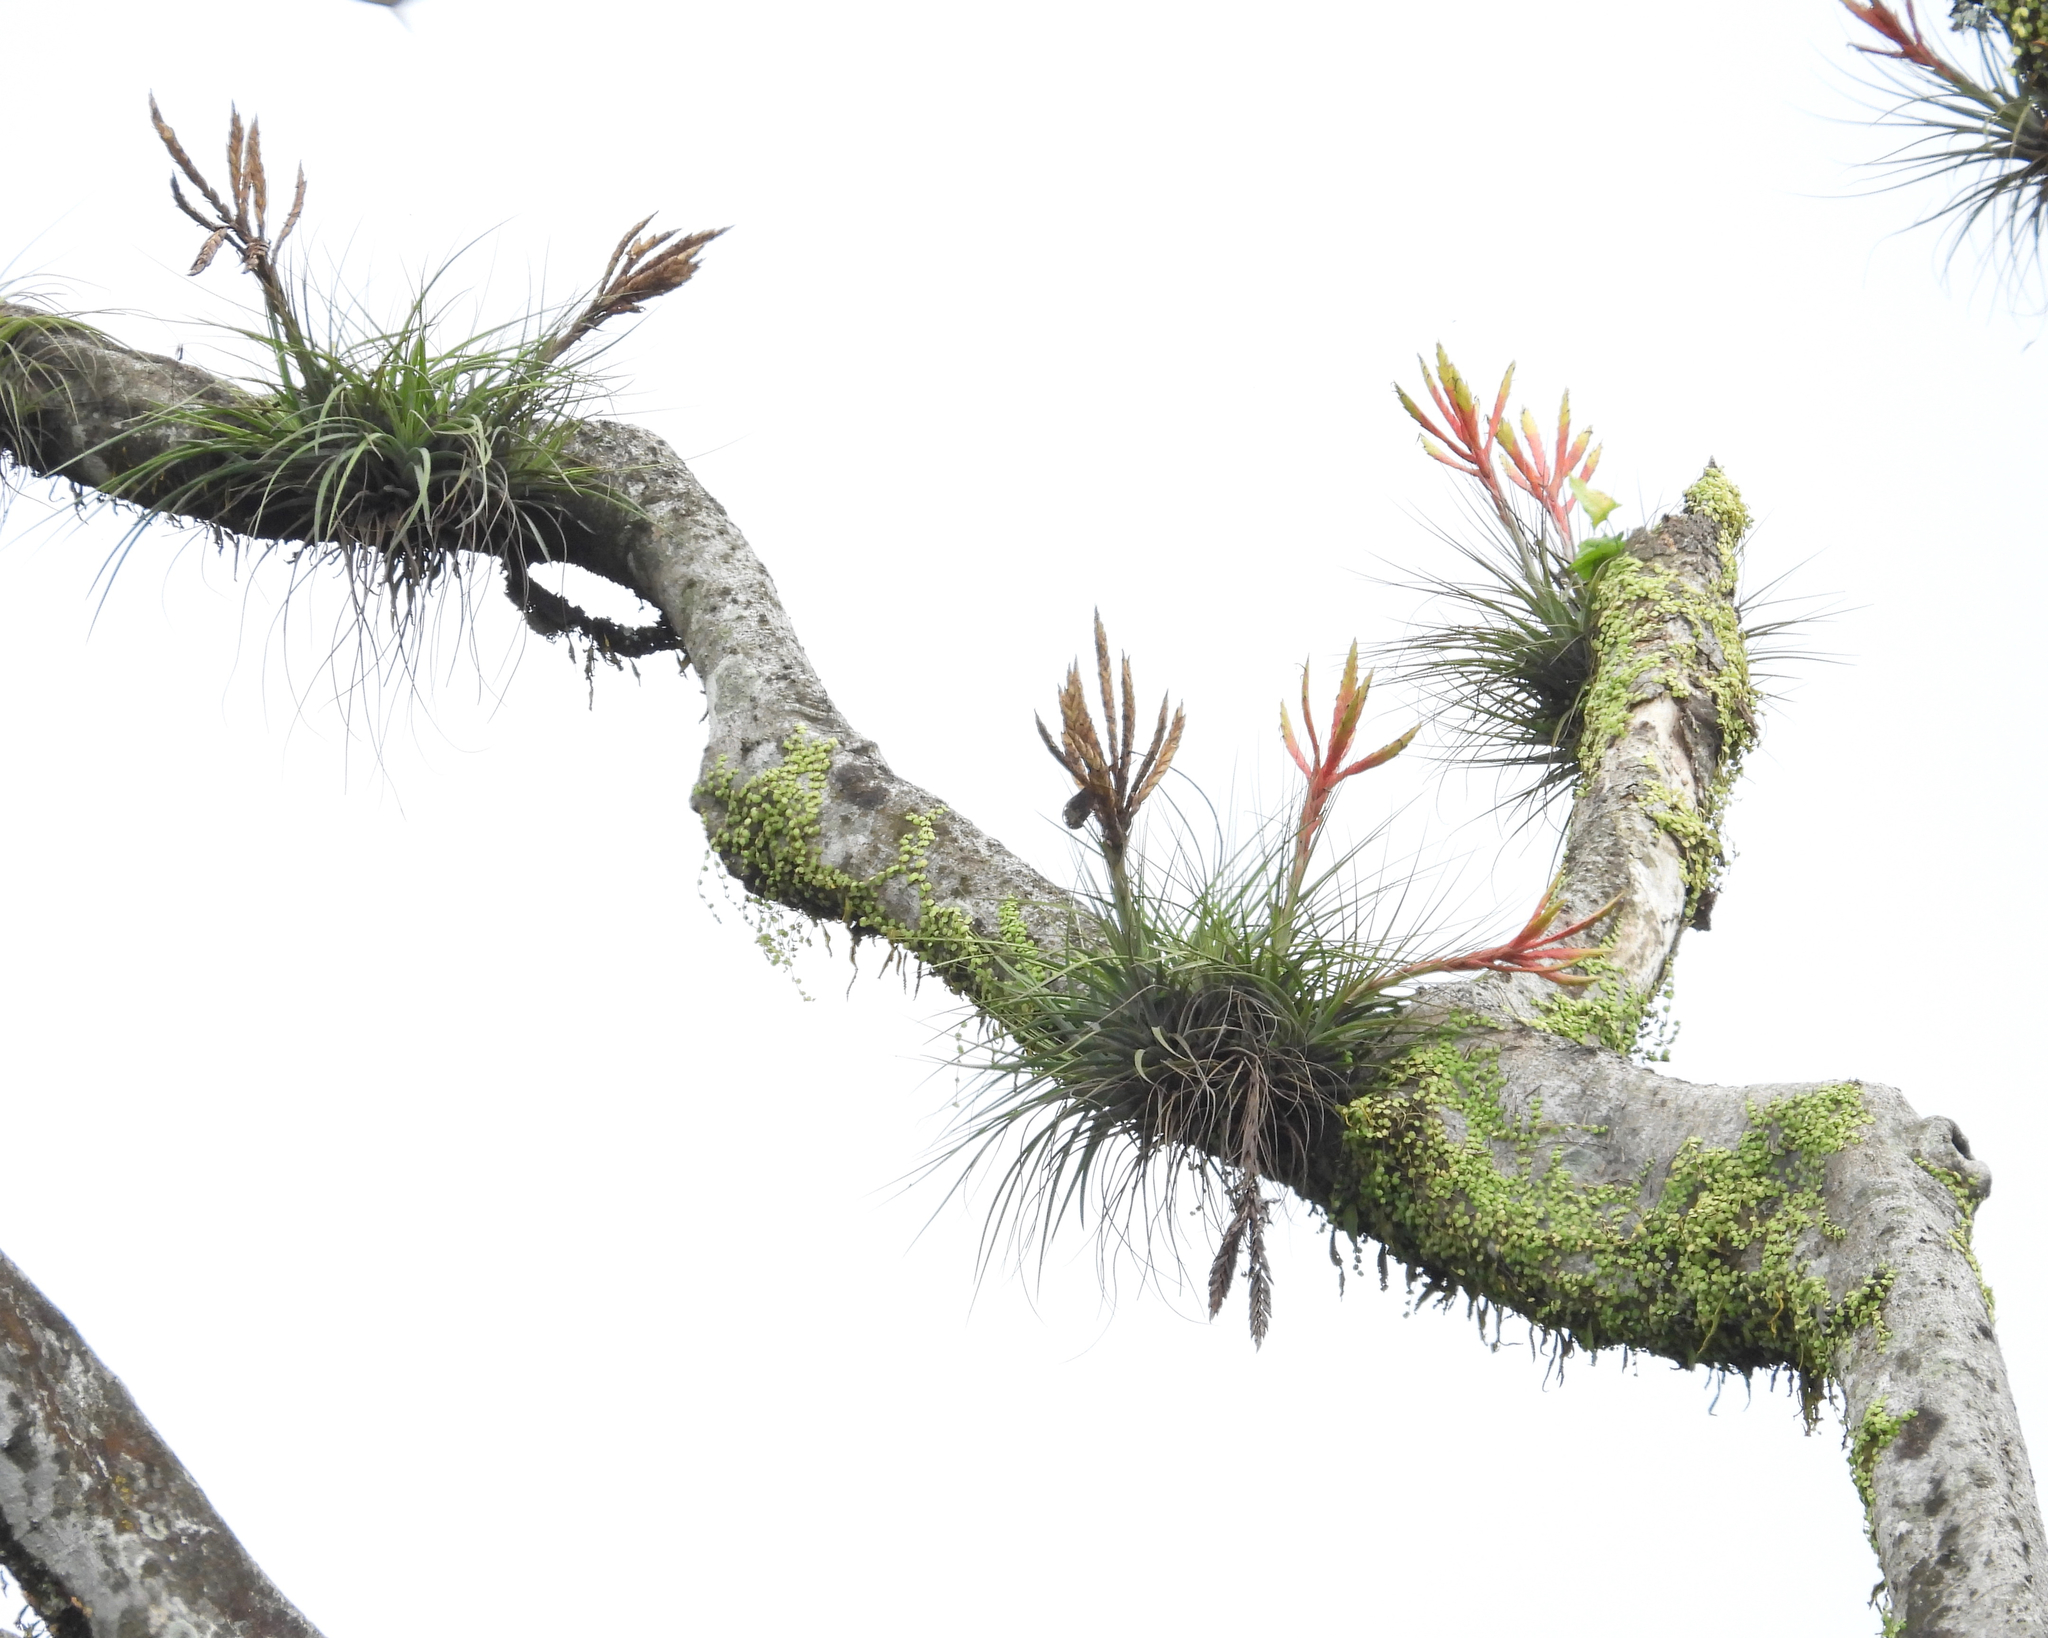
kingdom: Plantae
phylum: Tracheophyta
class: Liliopsida
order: Poales
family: Bromeliaceae
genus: Tillandsia
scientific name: Tillandsia fasciculata
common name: Giant airplant
